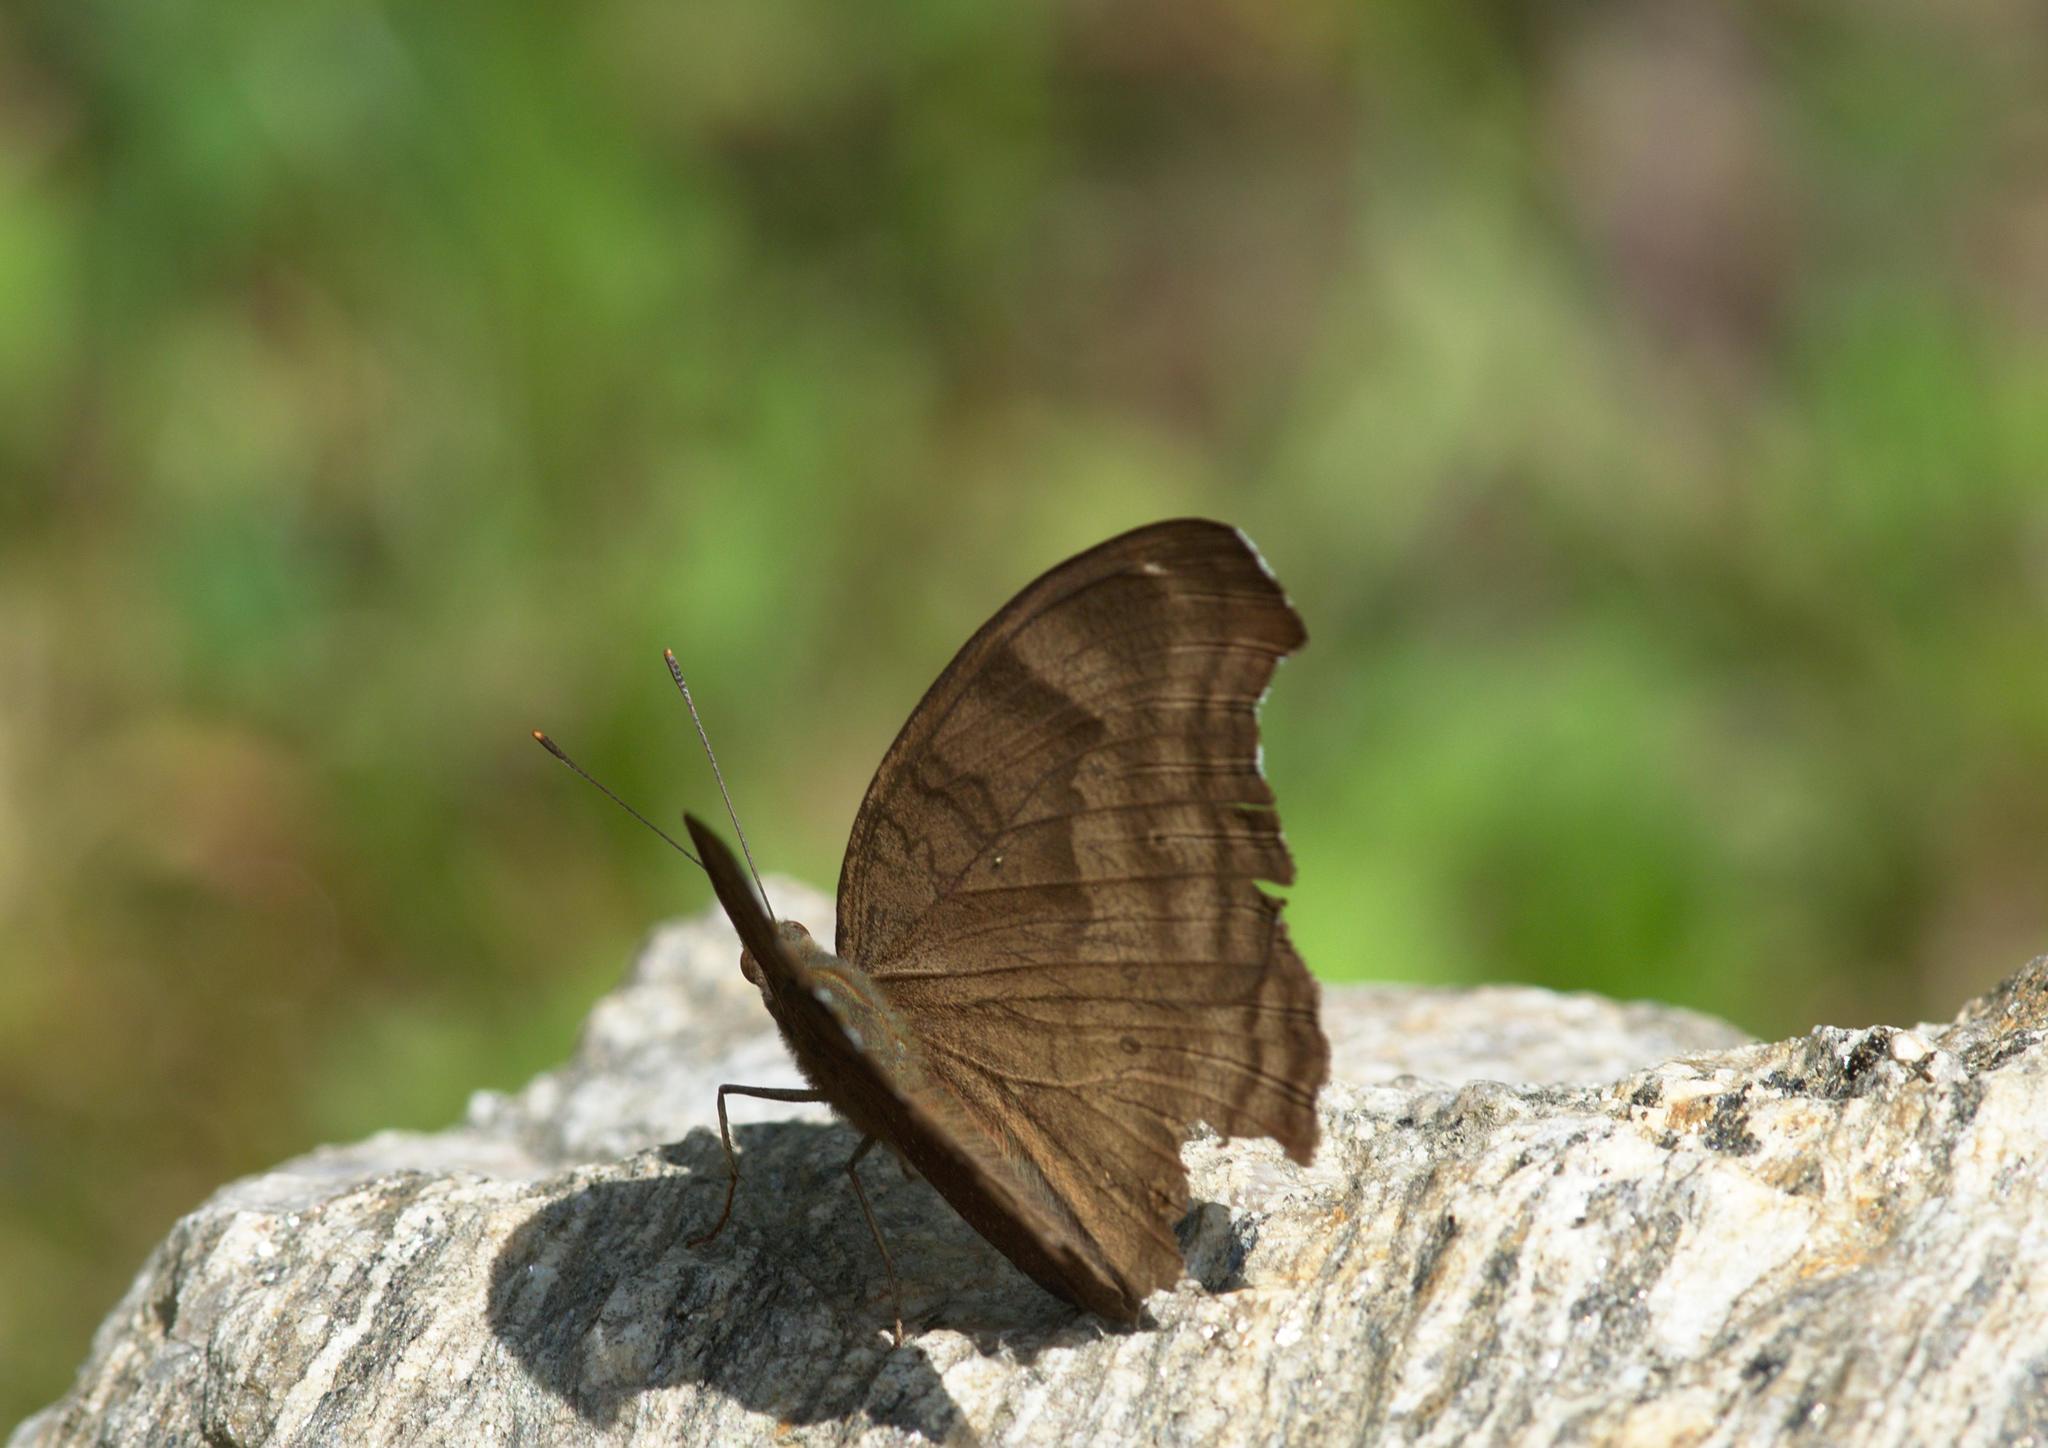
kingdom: Animalia
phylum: Arthropoda
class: Insecta
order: Lepidoptera
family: Nymphalidae
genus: Junonia
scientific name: Junonia iphita
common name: Chocolate pansy
